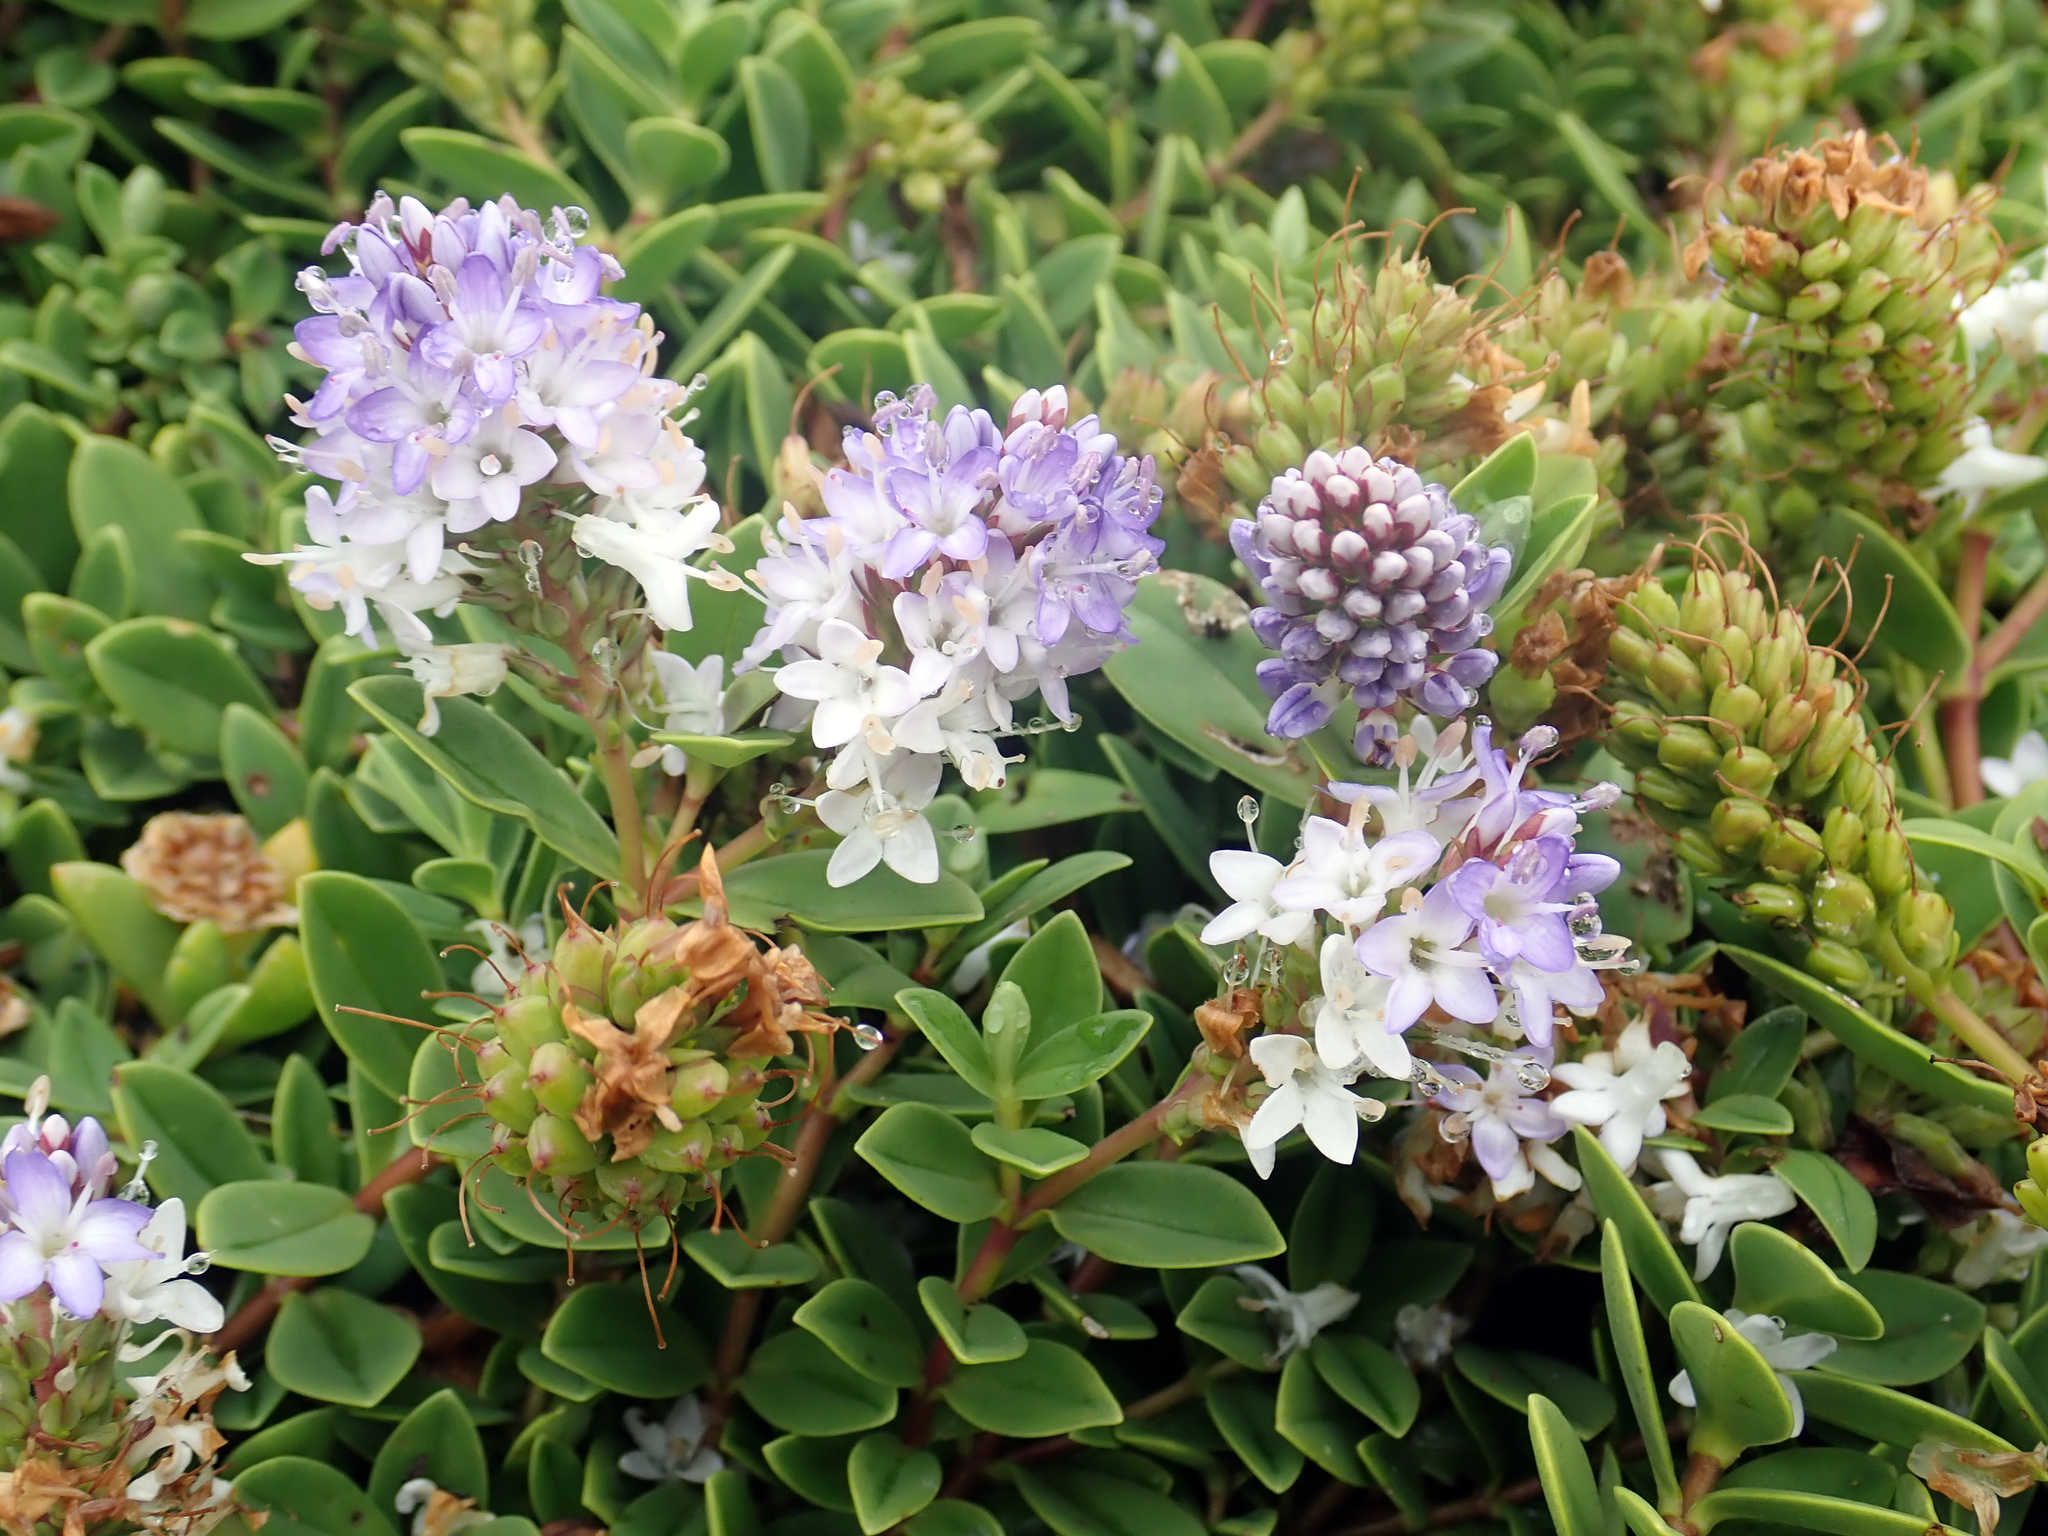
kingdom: Plantae
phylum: Tracheophyta
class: Magnoliopsida
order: Lamiales
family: Plantaginaceae
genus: Veronica
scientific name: Veronica chathamica
